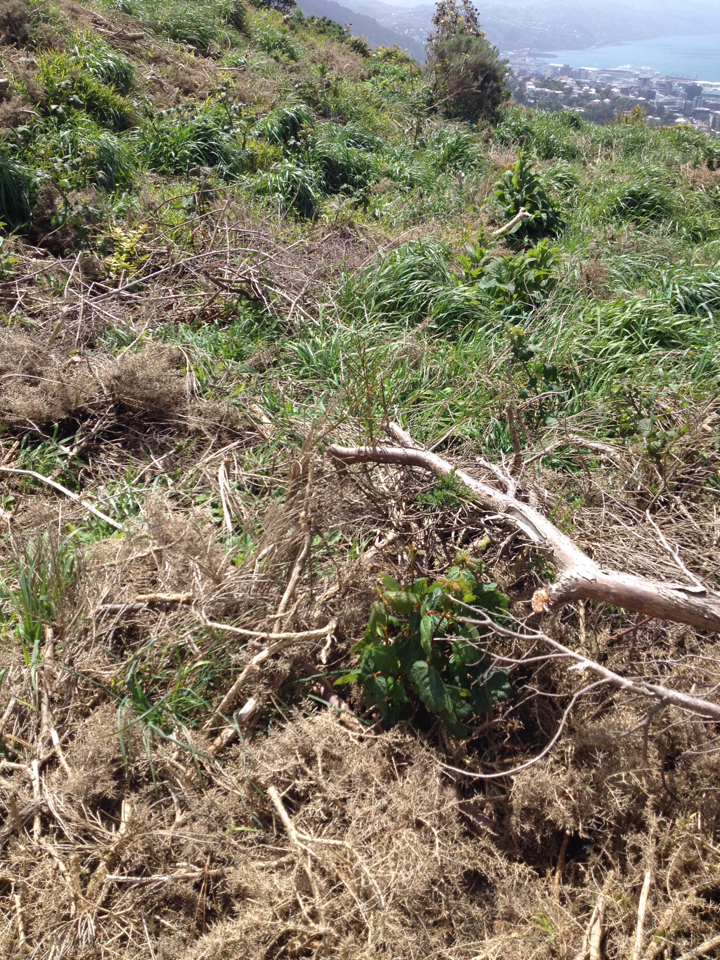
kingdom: Plantae
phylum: Tracheophyta
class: Magnoliopsida
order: Sapindales
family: Sapindaceae
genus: Acer
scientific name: Acer pseudoplatanus
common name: Sycamore
